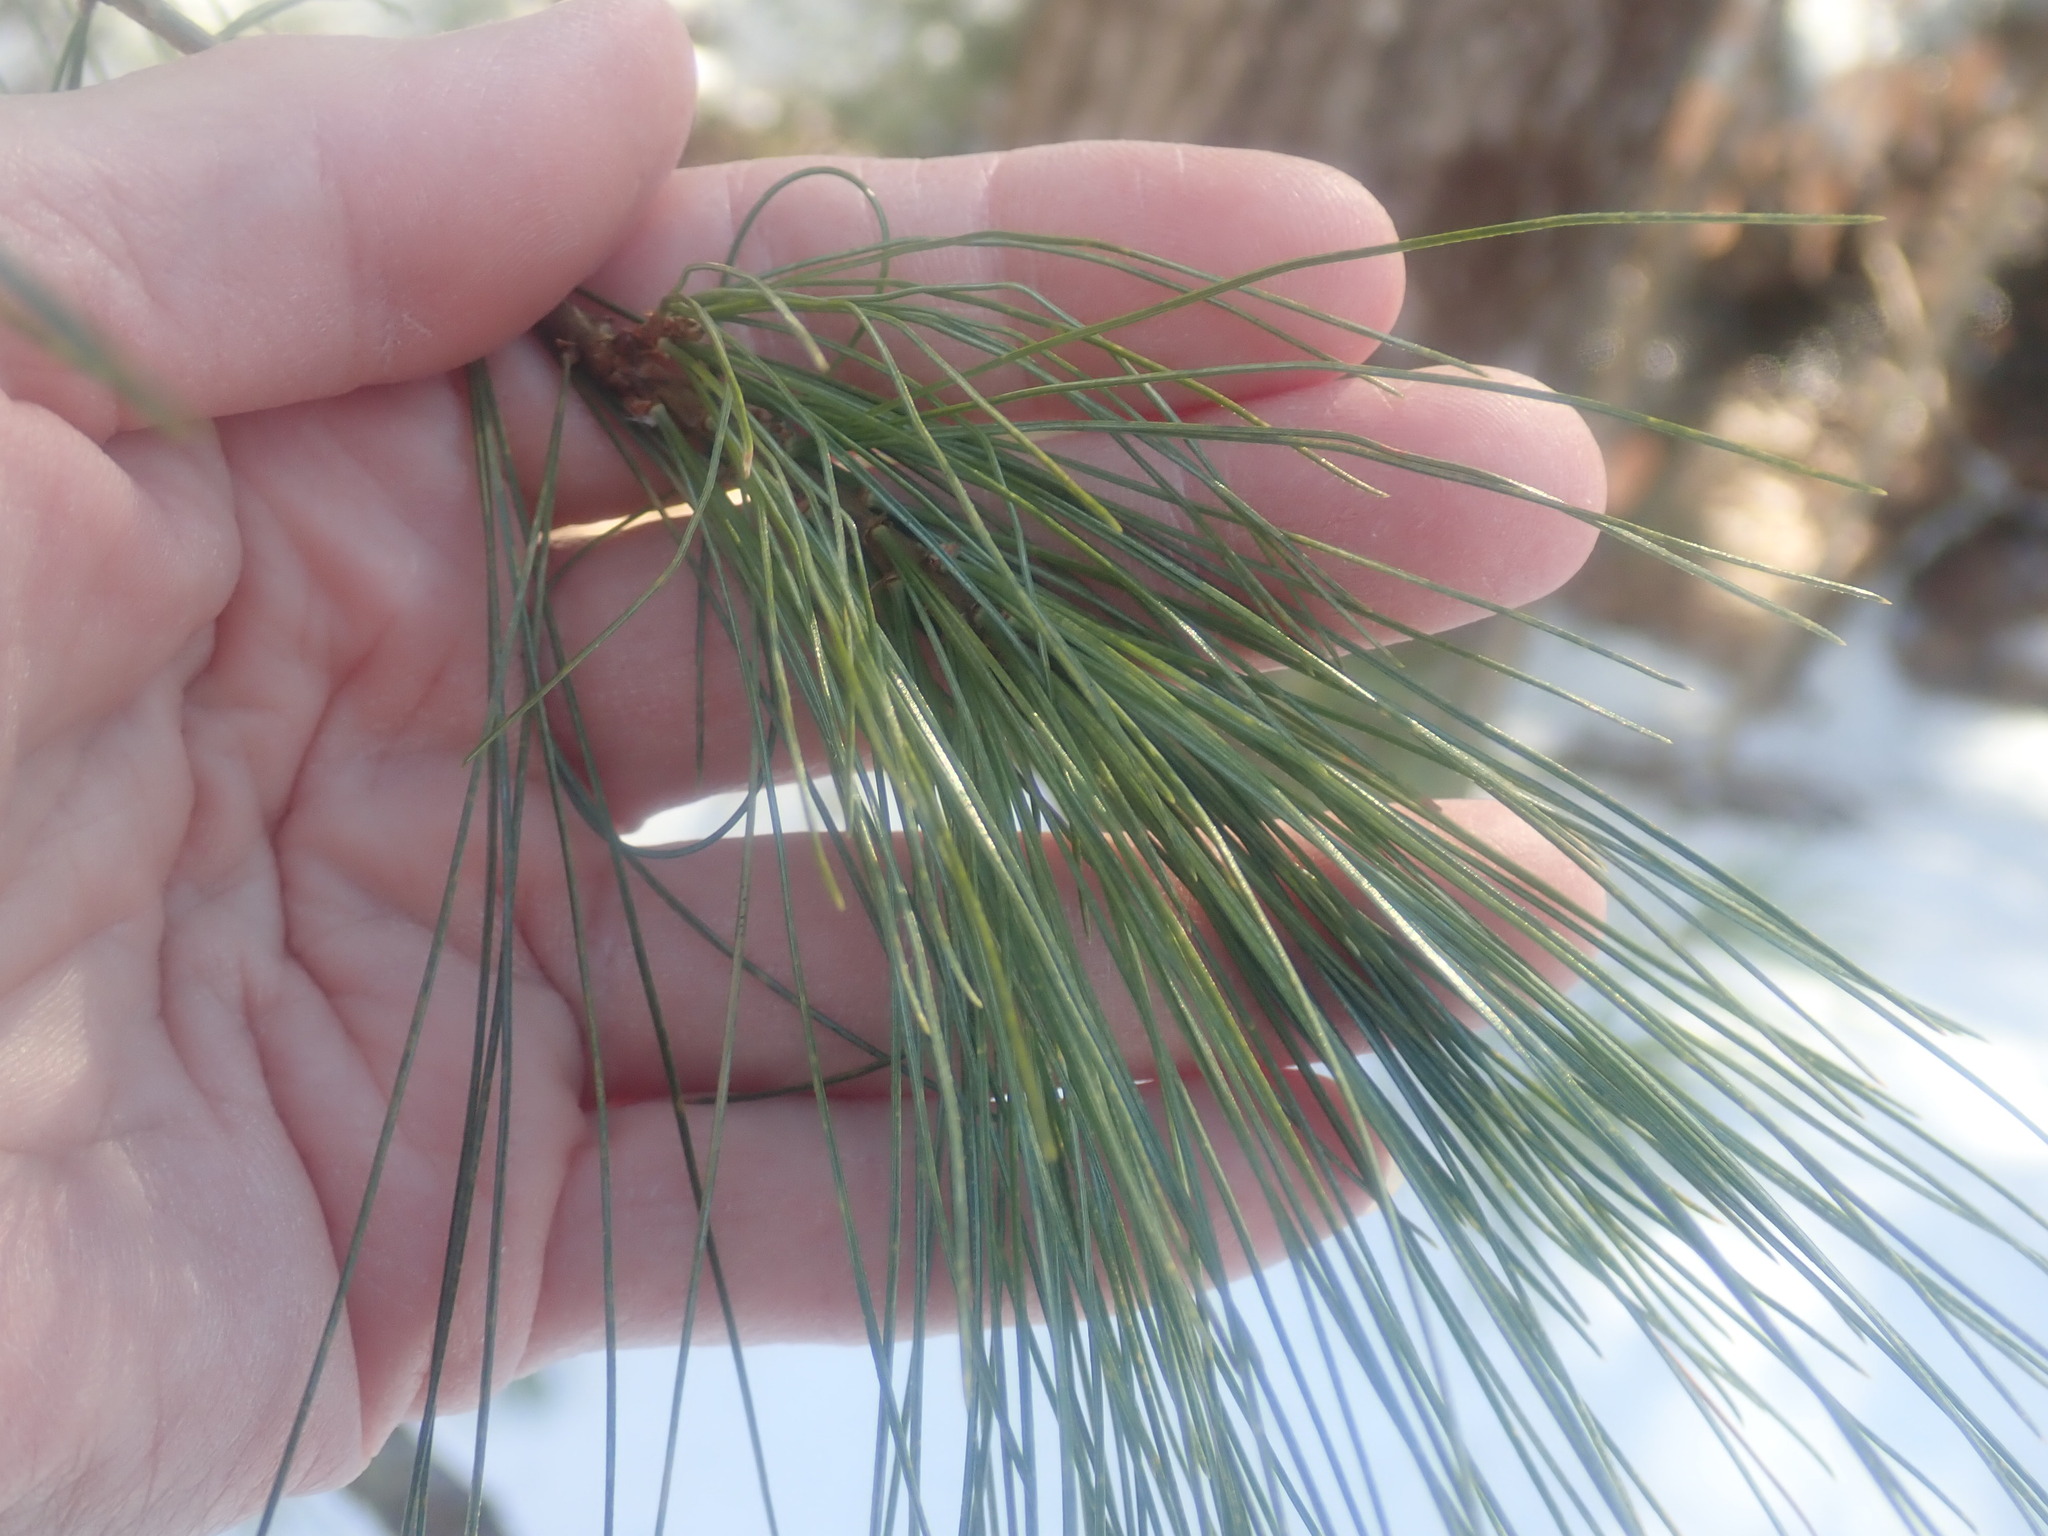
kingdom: Plantae
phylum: Tracheophyta
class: Pinopsida
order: Pinales
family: Pinaceae
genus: Pinus
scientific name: Pinus strobus
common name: Weymouth pine
